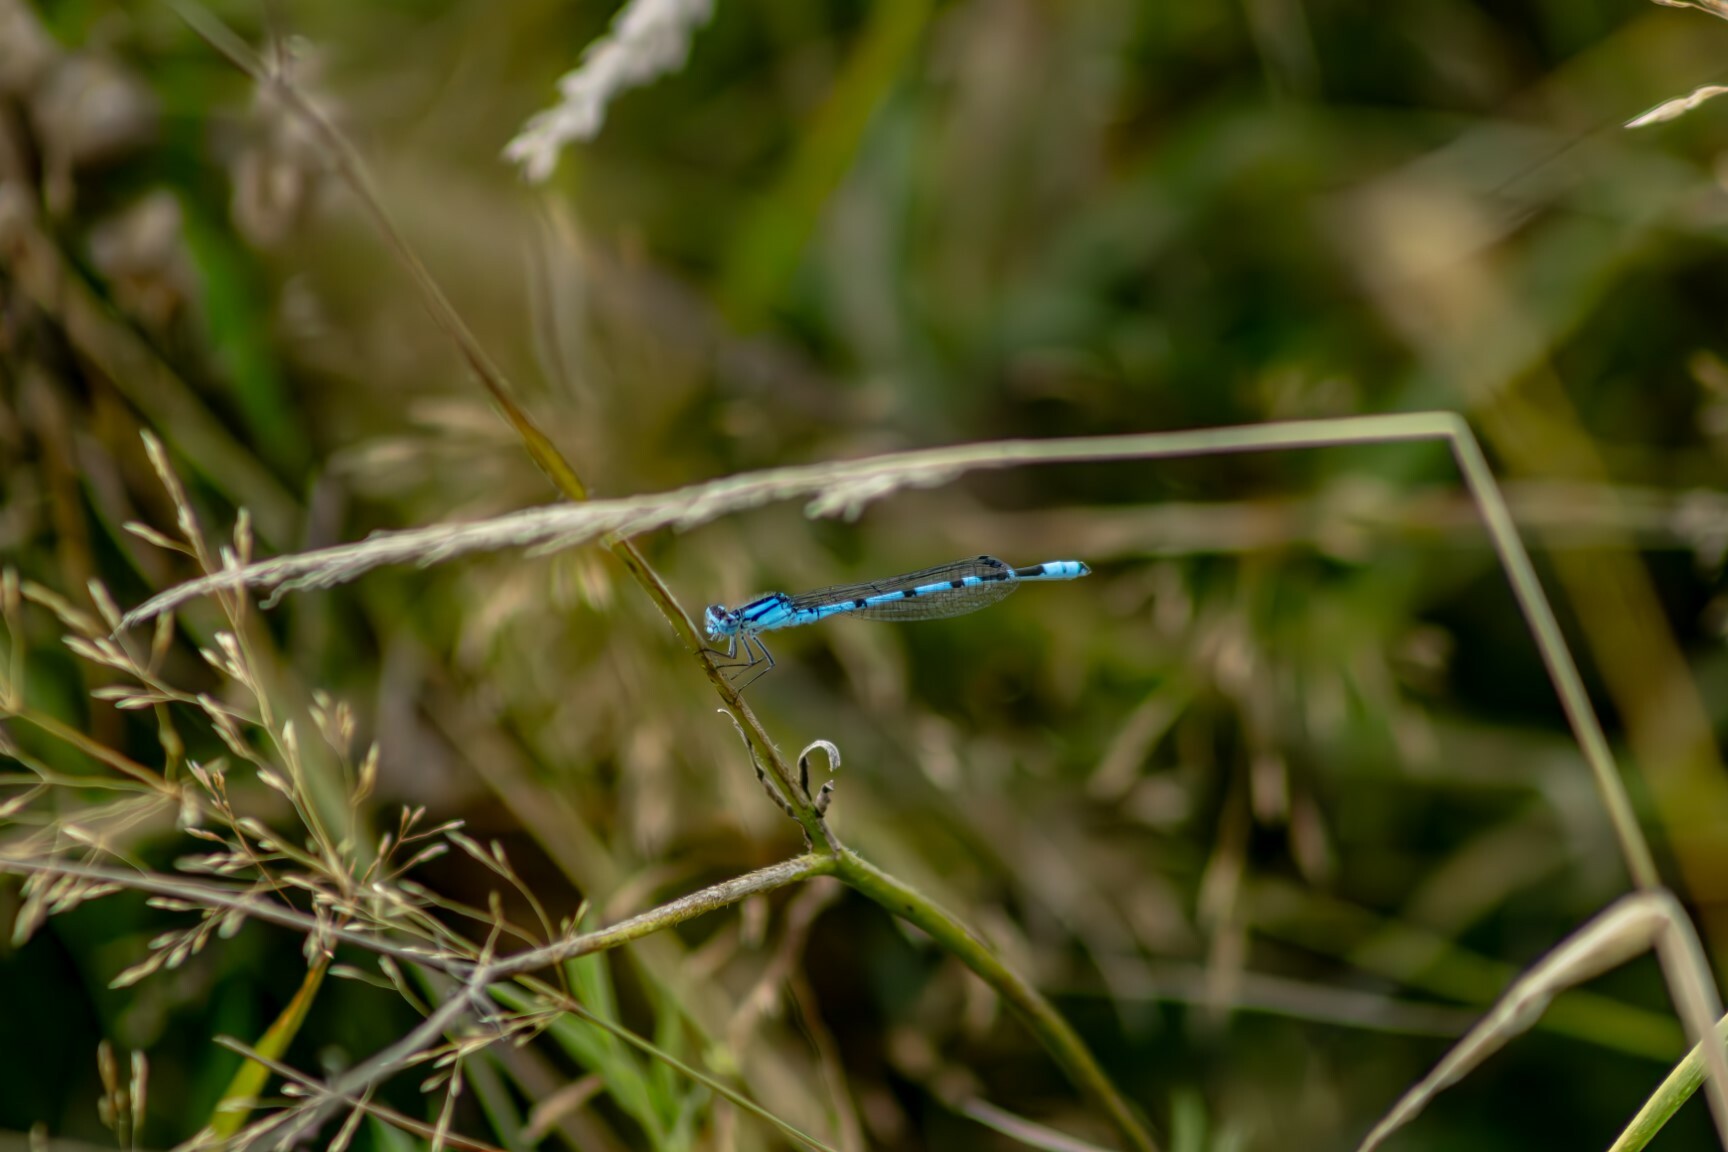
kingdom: Animalia
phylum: Arthropoda
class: Insecta
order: Odonata
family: Coenagrionidae
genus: Enallagma
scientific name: Enallagma cyathigerum
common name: Common blue damselfly
